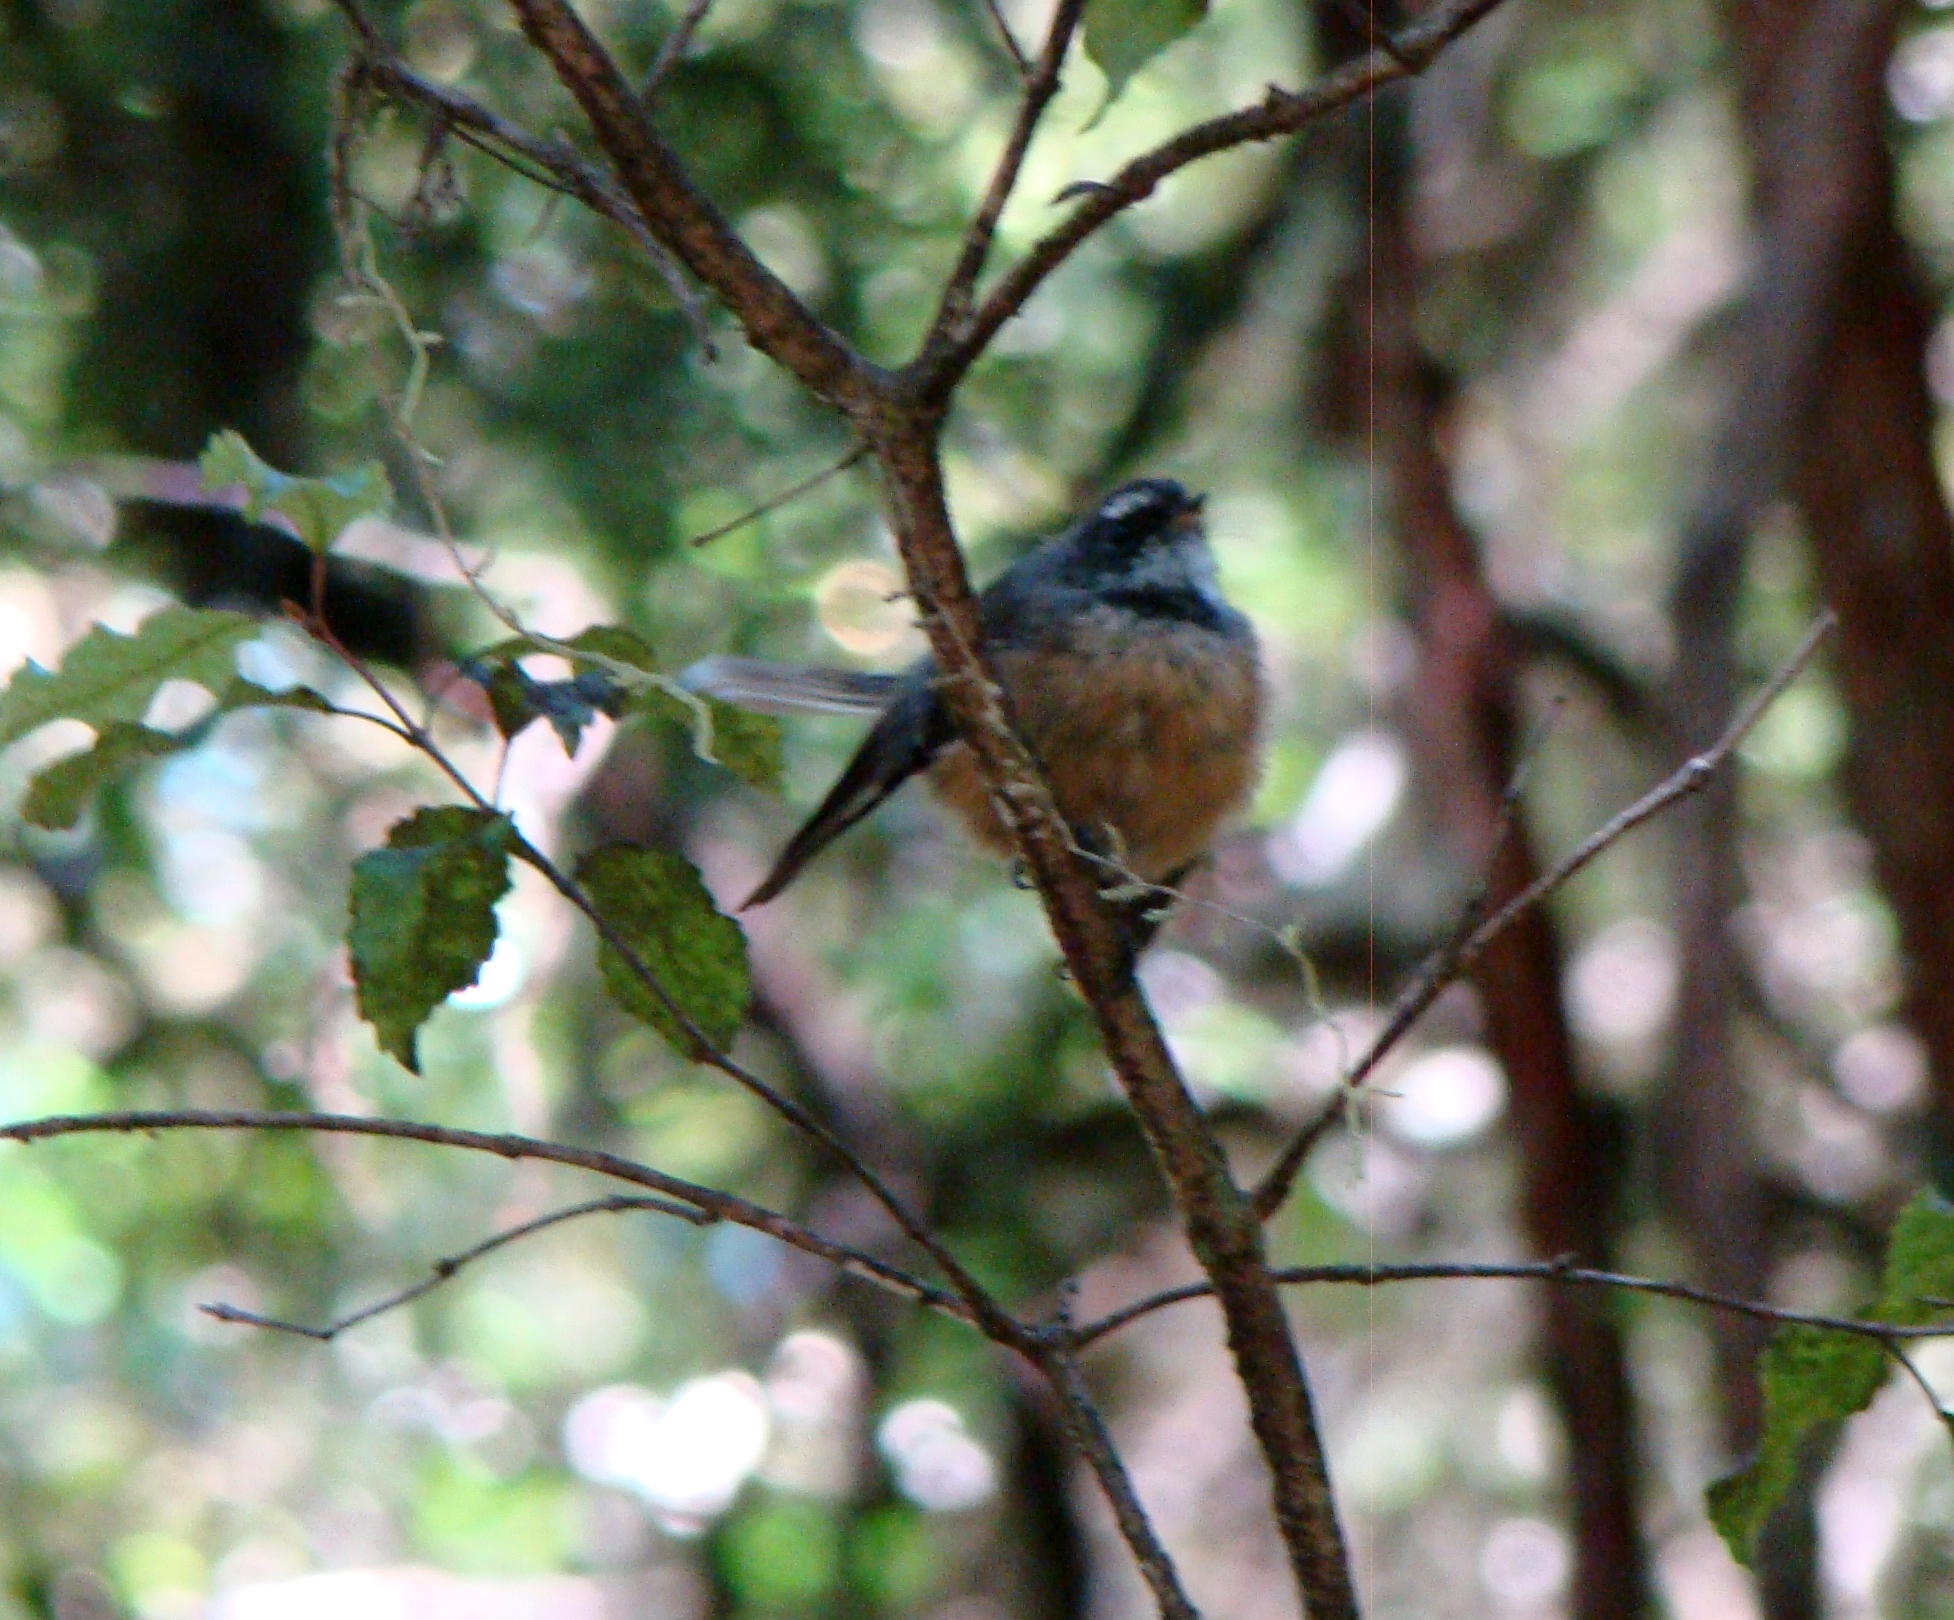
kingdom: Animalia
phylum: Chordata
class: Aves
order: Passeriformes
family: Rhipiduridae
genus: Rhipidura
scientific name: Rhipidura fuliginosa
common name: New zealand fantail
